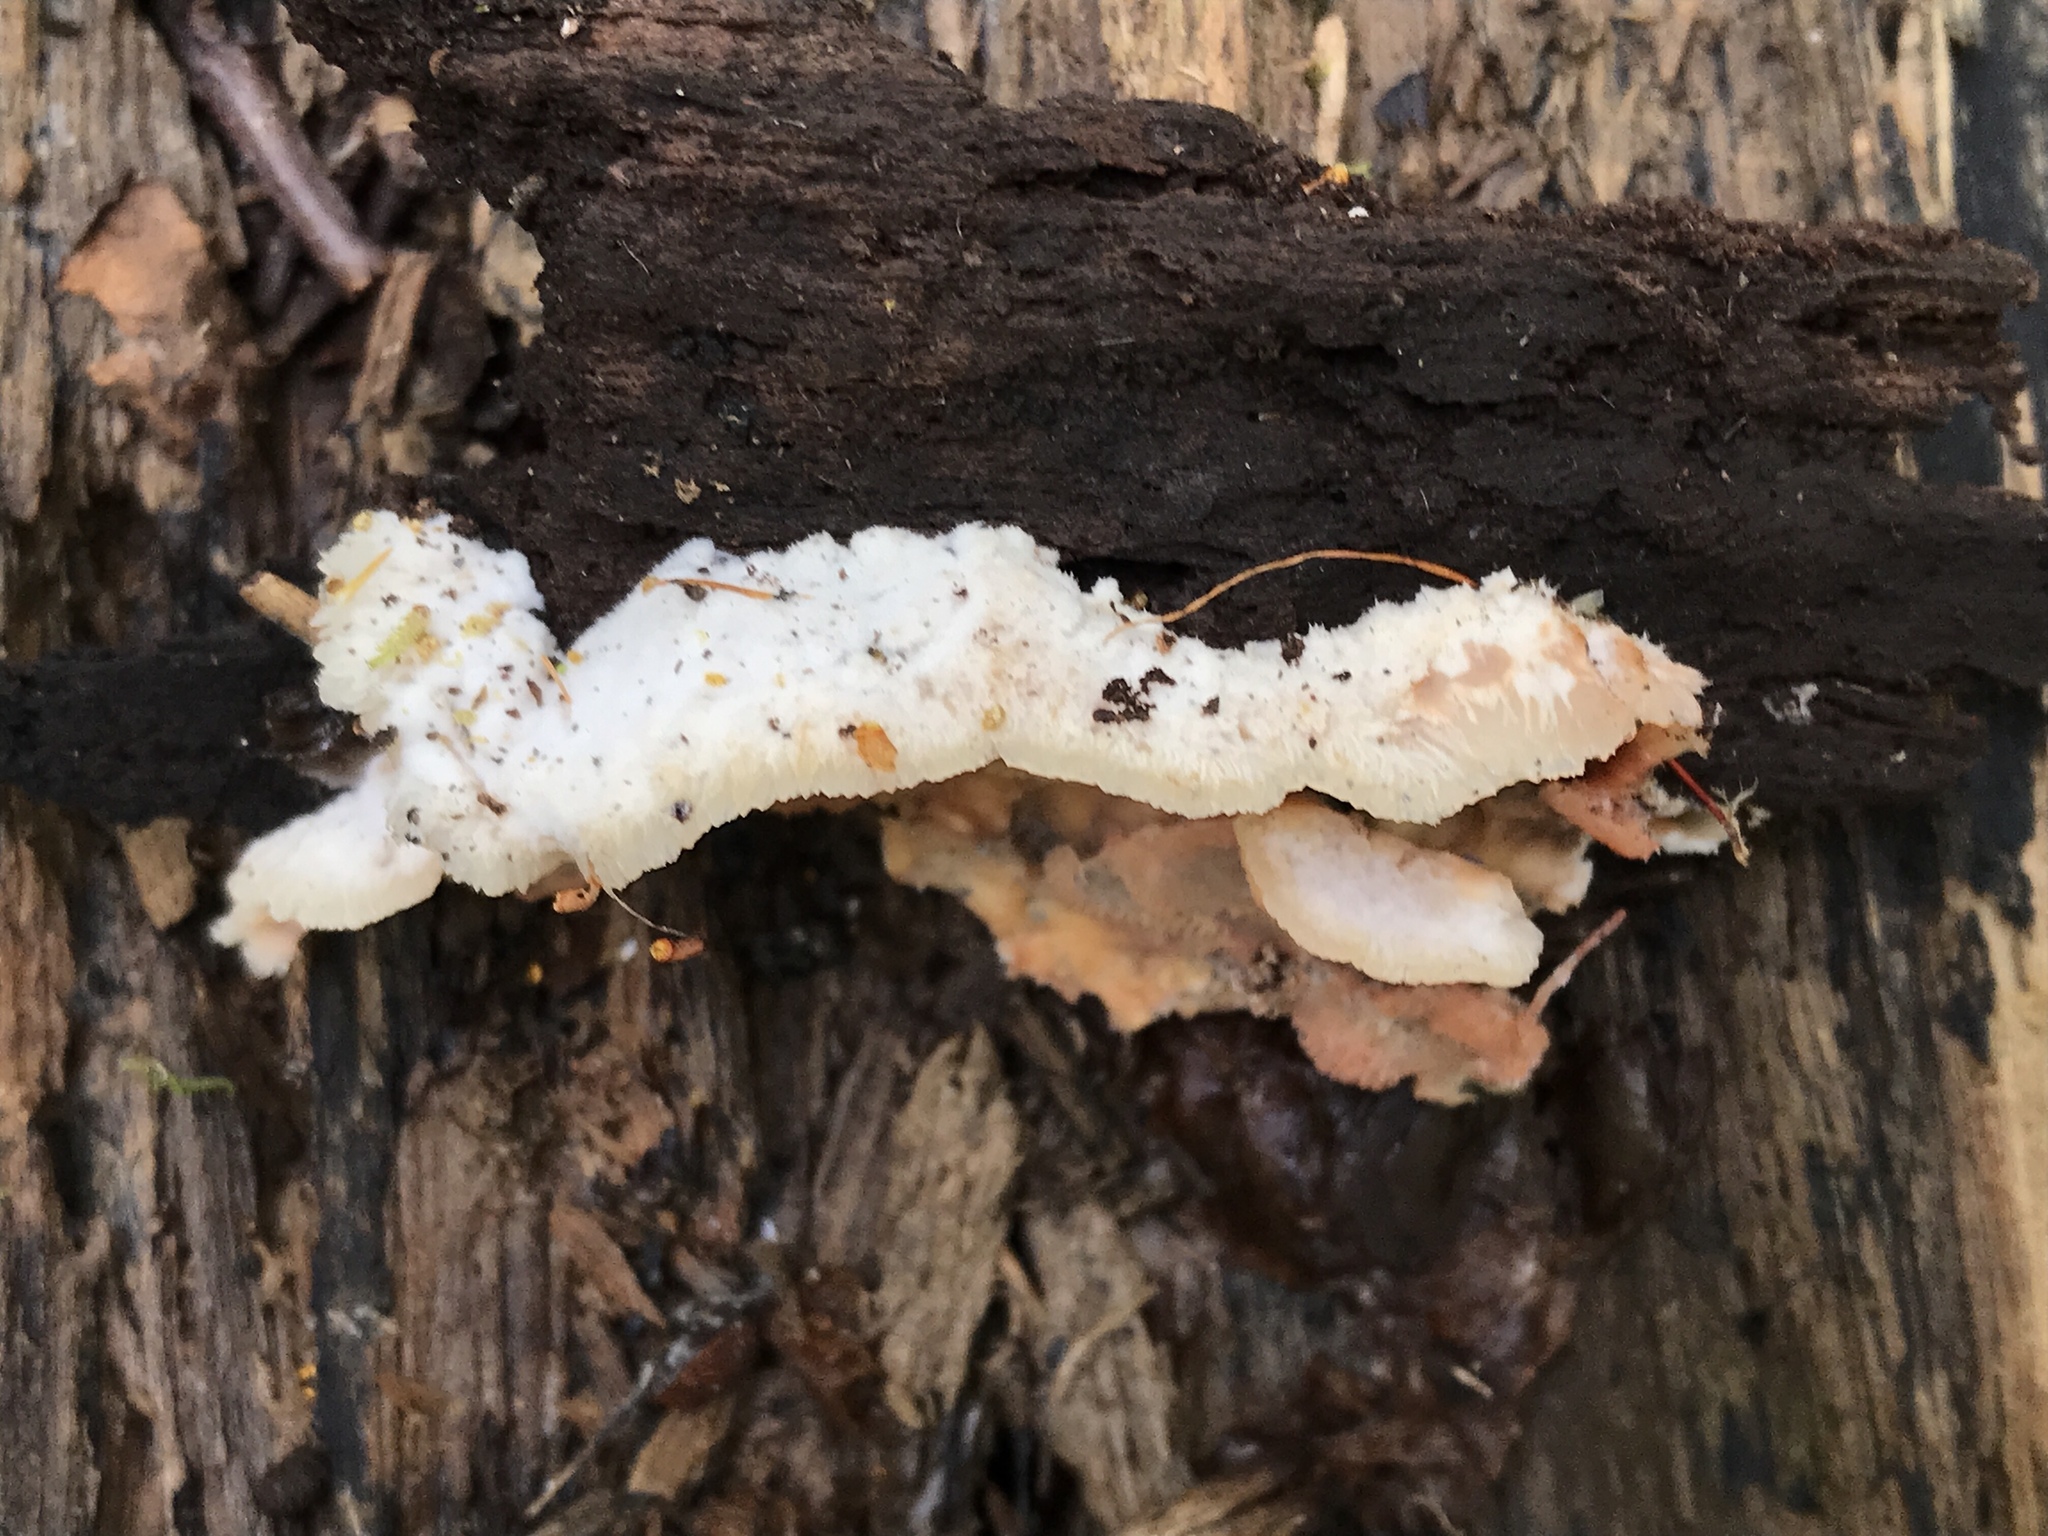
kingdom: Fungi
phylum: Basidiomycota
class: Agaricomycetes
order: Polyporales
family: Meruliaceae
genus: Phlebia
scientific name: Phlebia tremellosa
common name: Jelly rot
